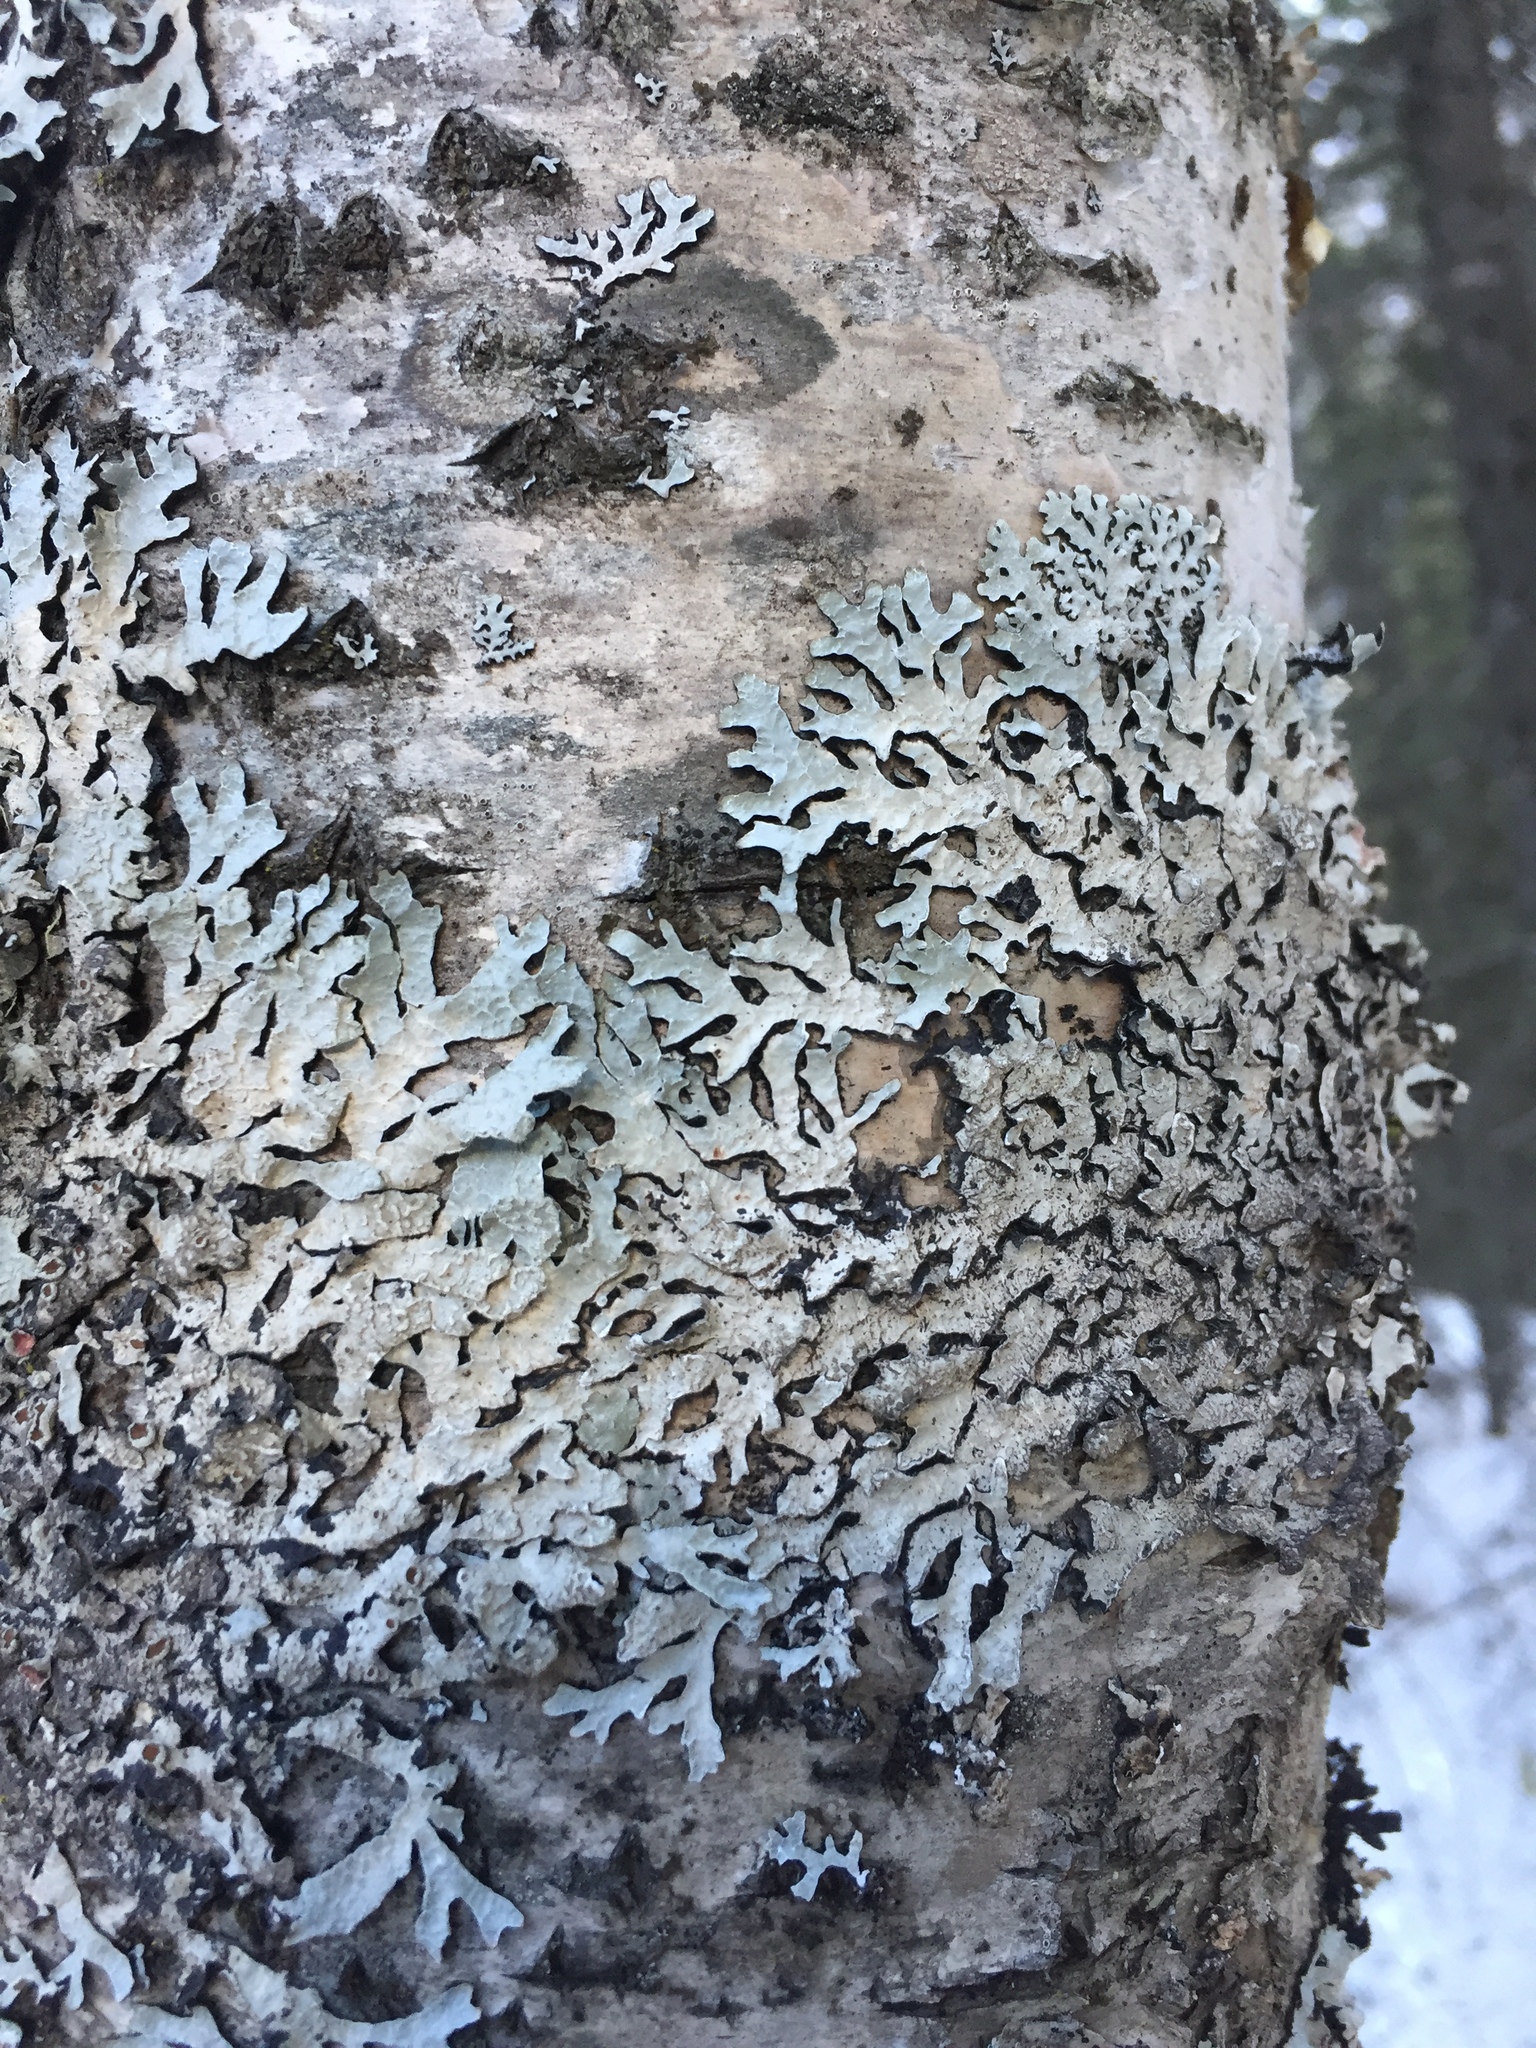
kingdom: Fungi
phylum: Ascomycota
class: Lecanoromycetes
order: Lecanorales
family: Parmeliaceae
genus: Parmelia
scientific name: Parmelia sulcata
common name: Netted shield lichen
